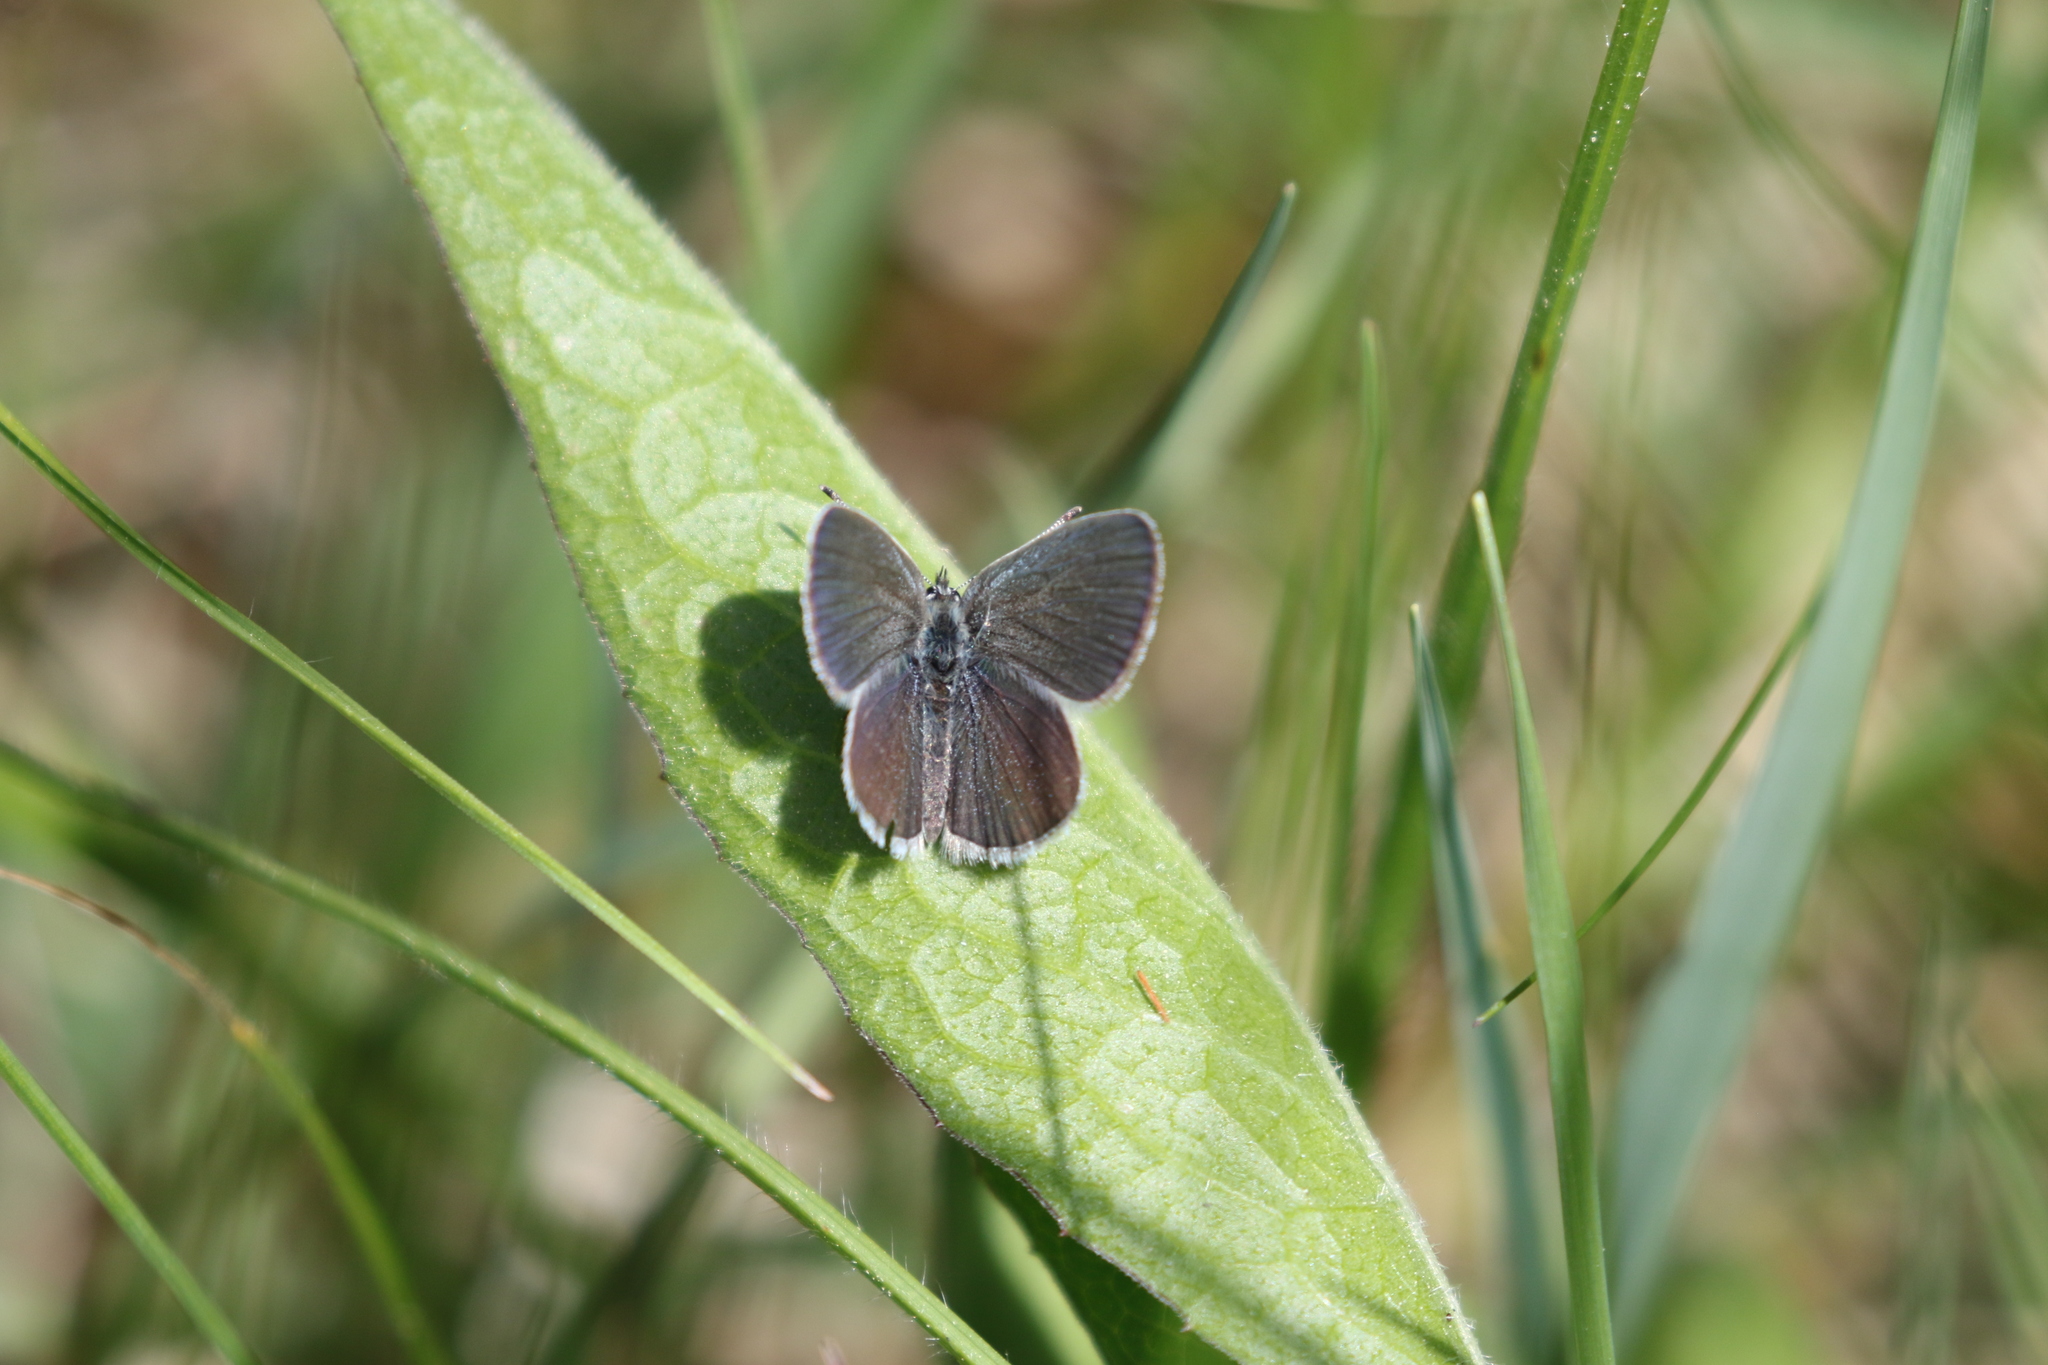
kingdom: Animalia
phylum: Arthropoda
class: Insecta
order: Lepidoptera
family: Lycaenidae
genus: Cupido
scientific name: Cupido minimus
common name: Small blue
